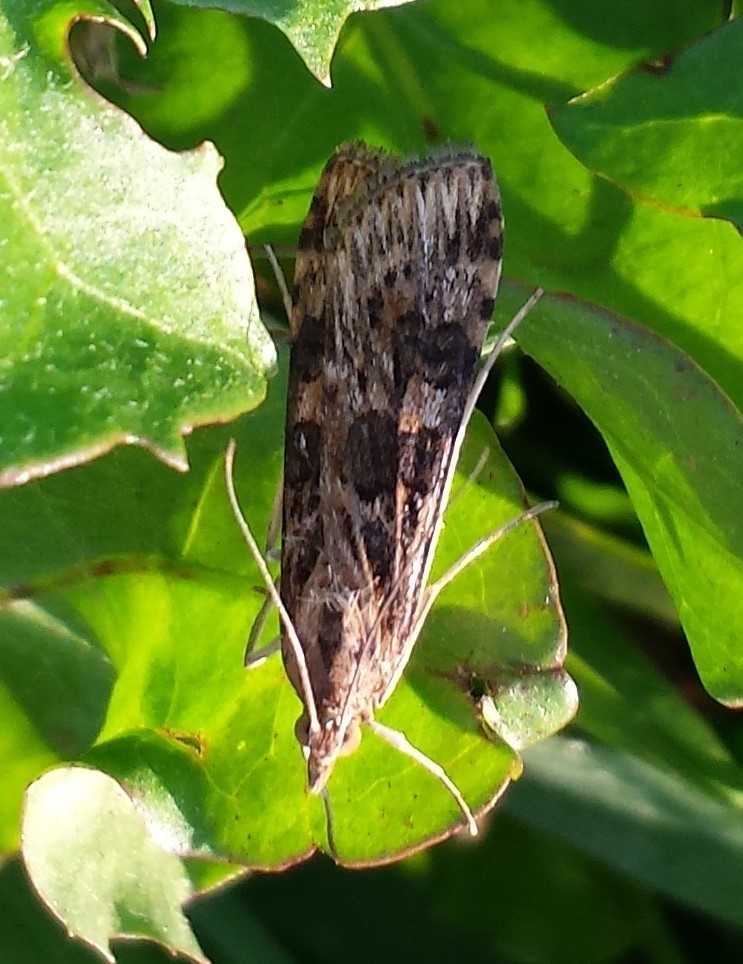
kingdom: Animalia
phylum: Arthropoda
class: Insecta
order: Lepidoptera
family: Crambidae
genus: Nomophila
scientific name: Nomophila nearctica
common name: American rush veneer
